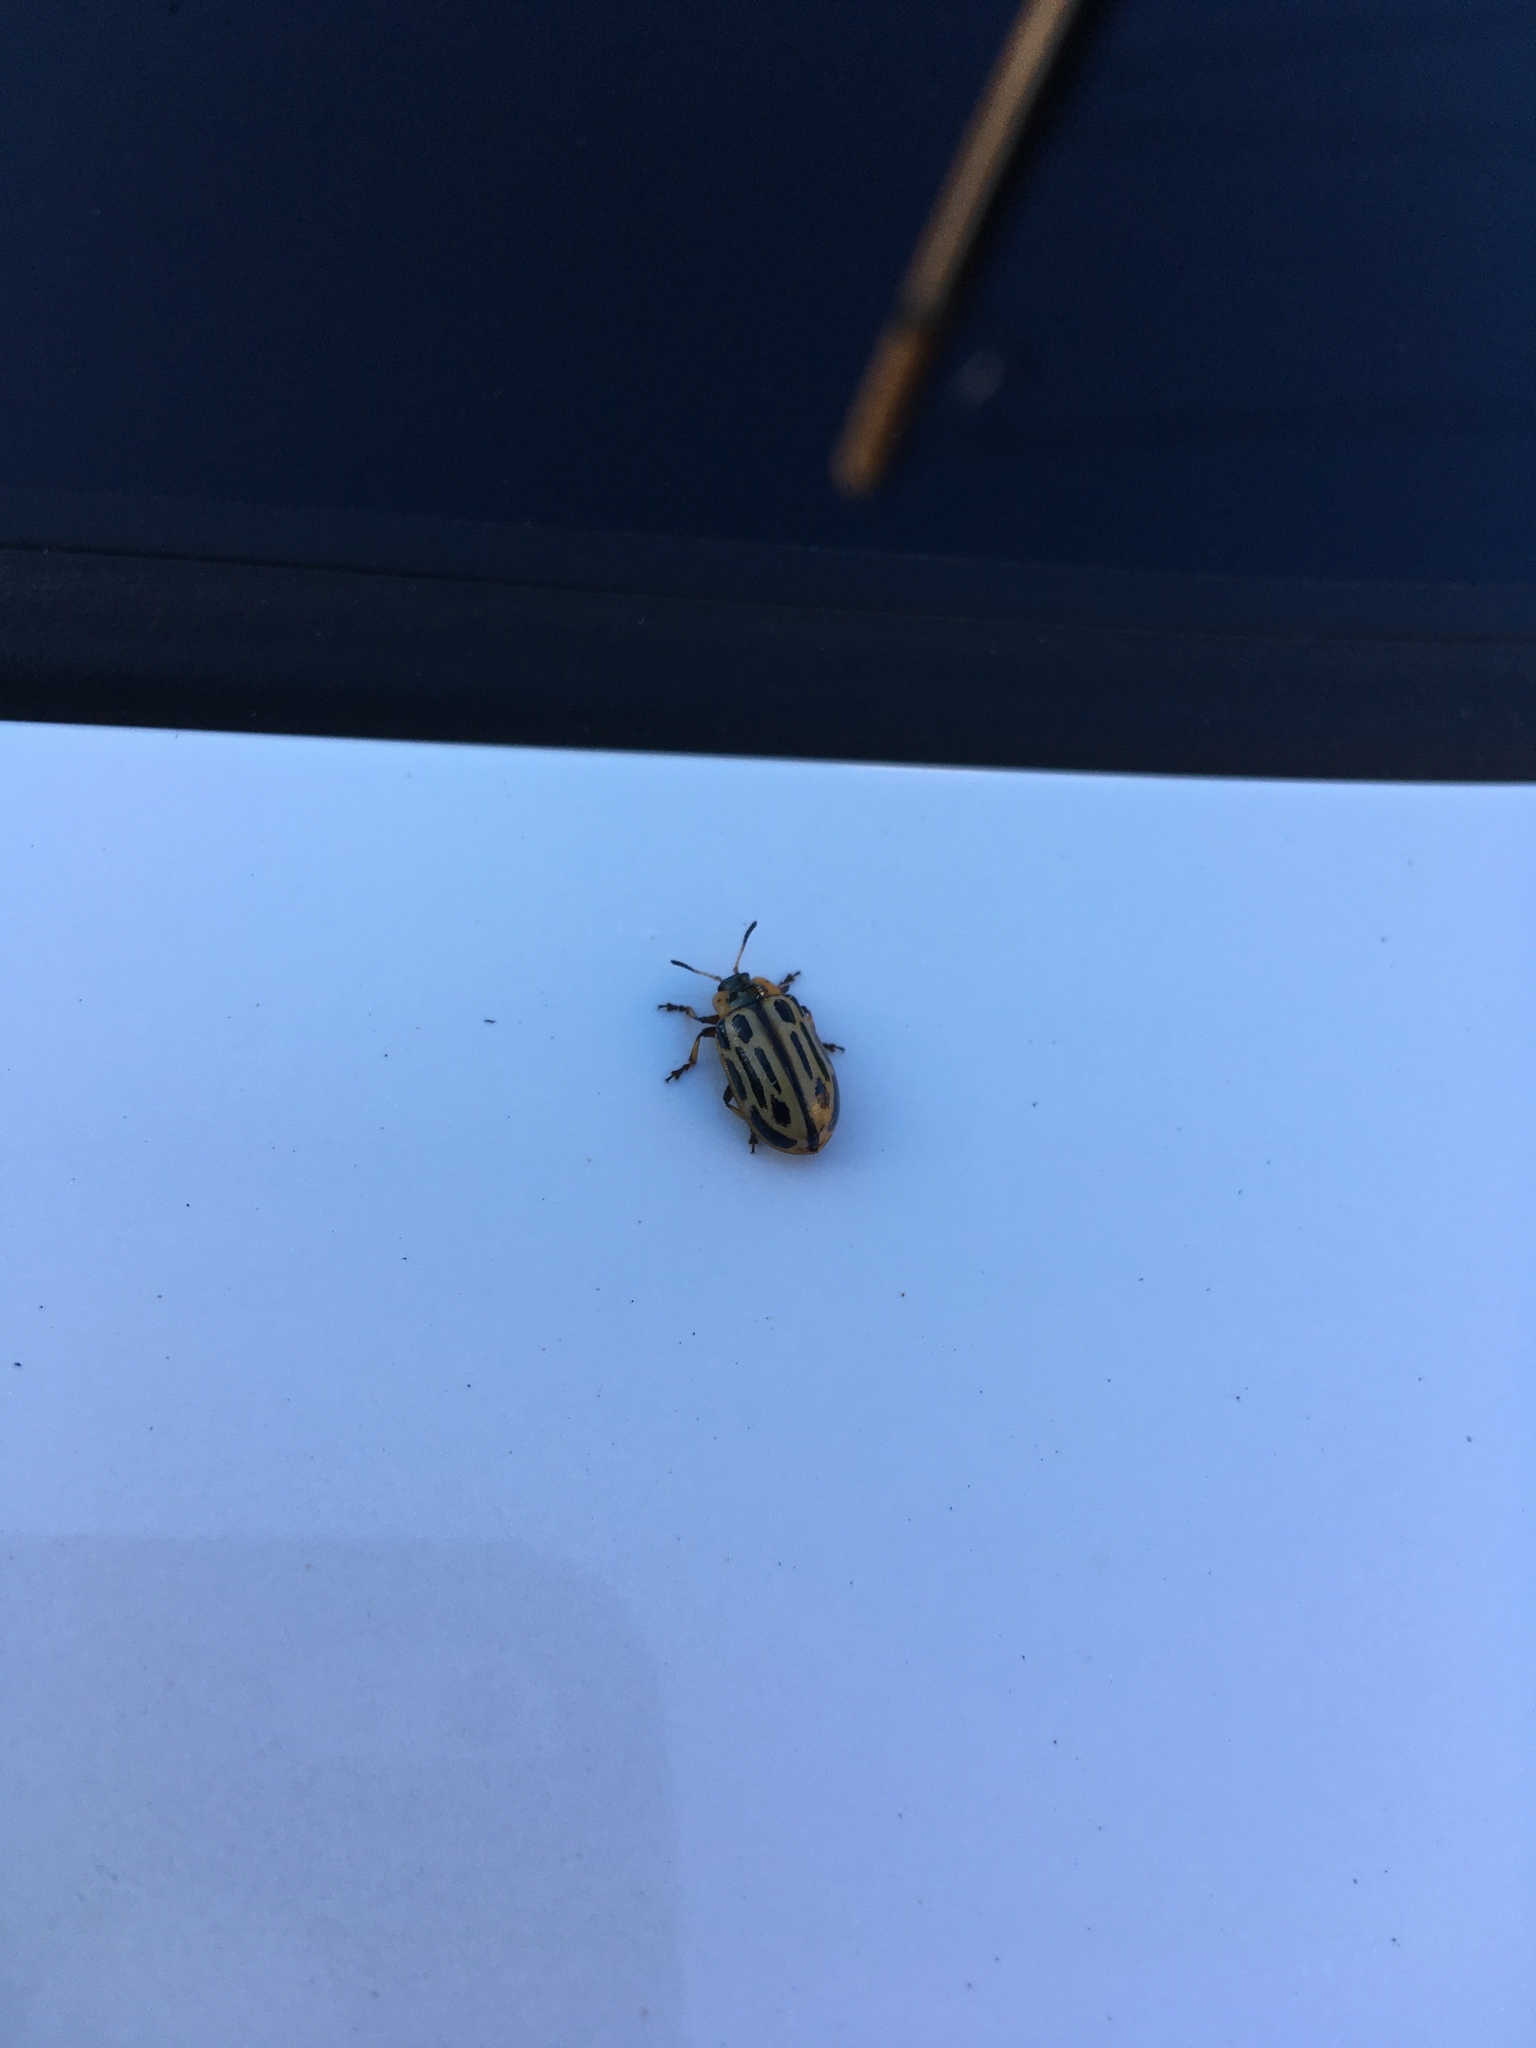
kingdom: Animalia
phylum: Arthropoda
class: Insecta
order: Coleoptera
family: Chrysomelidae
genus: Aethiopocassis
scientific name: Aethiopocassis scripta
